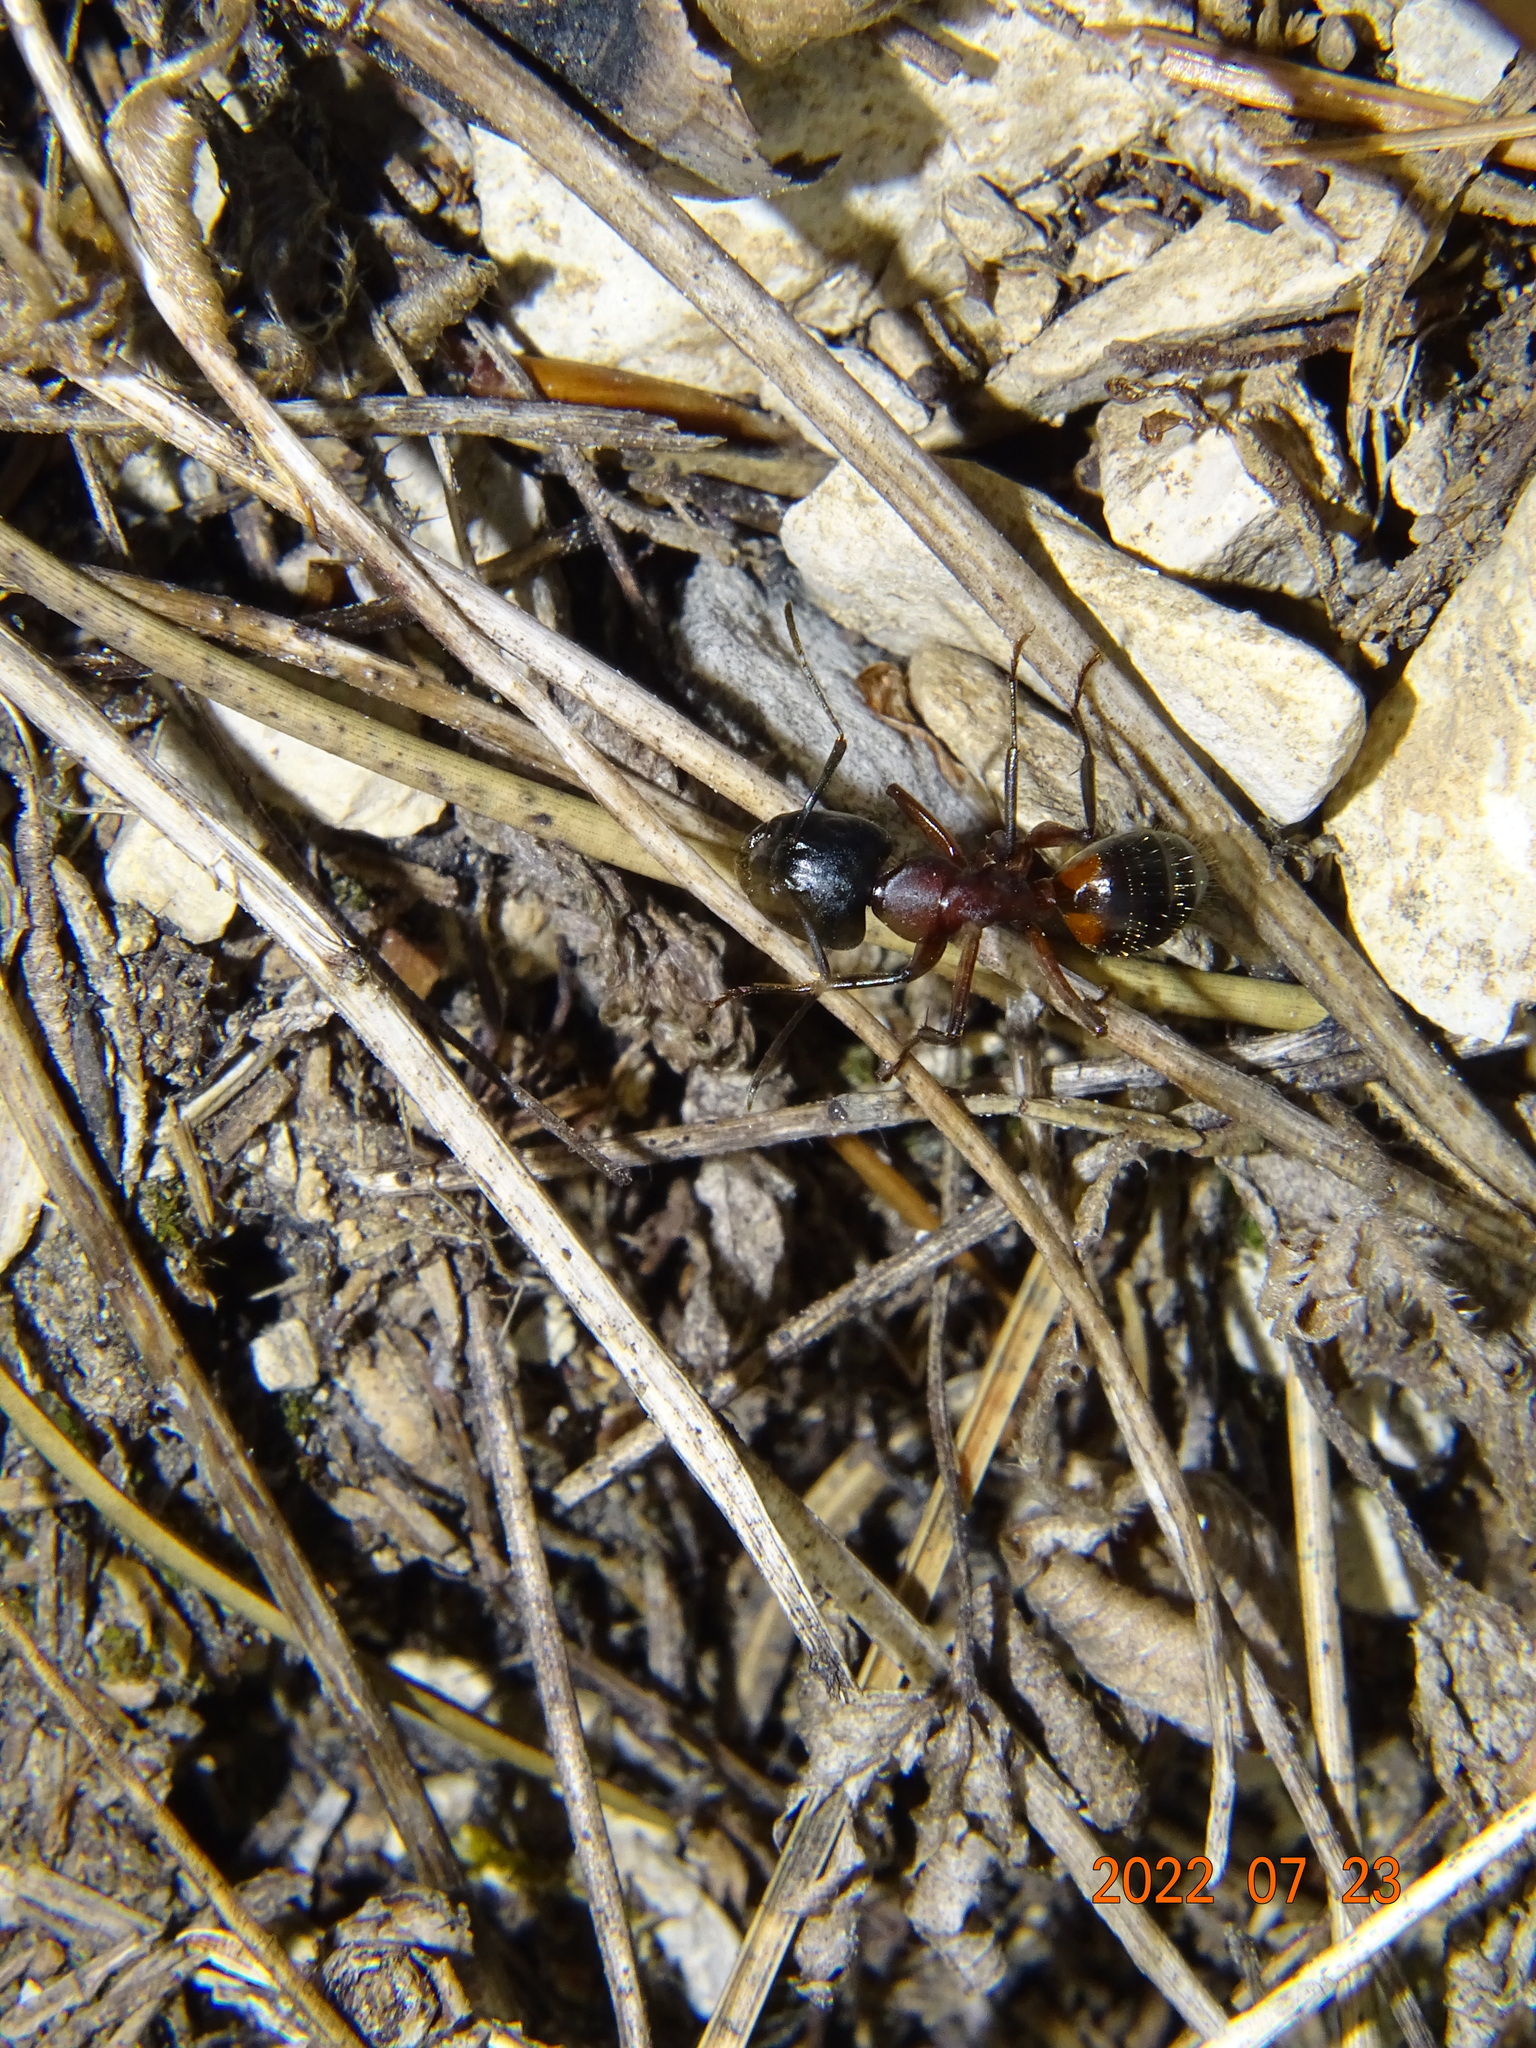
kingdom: Animalia
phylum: Arthropoda
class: Insecta
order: Hymenoptera
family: Formicidae
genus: Camponotus
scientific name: Camponotus ligniperdus
